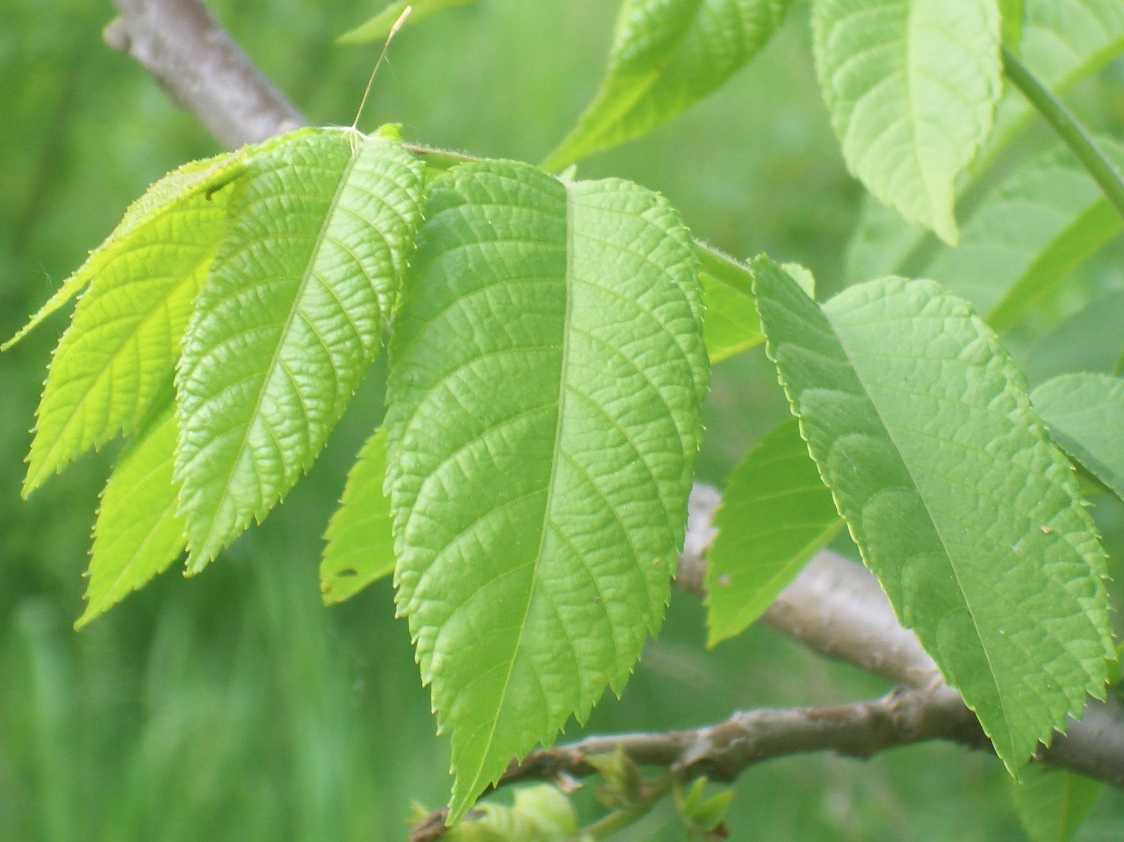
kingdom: Plantae
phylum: Tracheophyta
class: Magnoliopsida
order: Fagales
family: Juglandaceae
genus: Juglans
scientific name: Juglans nigra
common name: Black walnut
